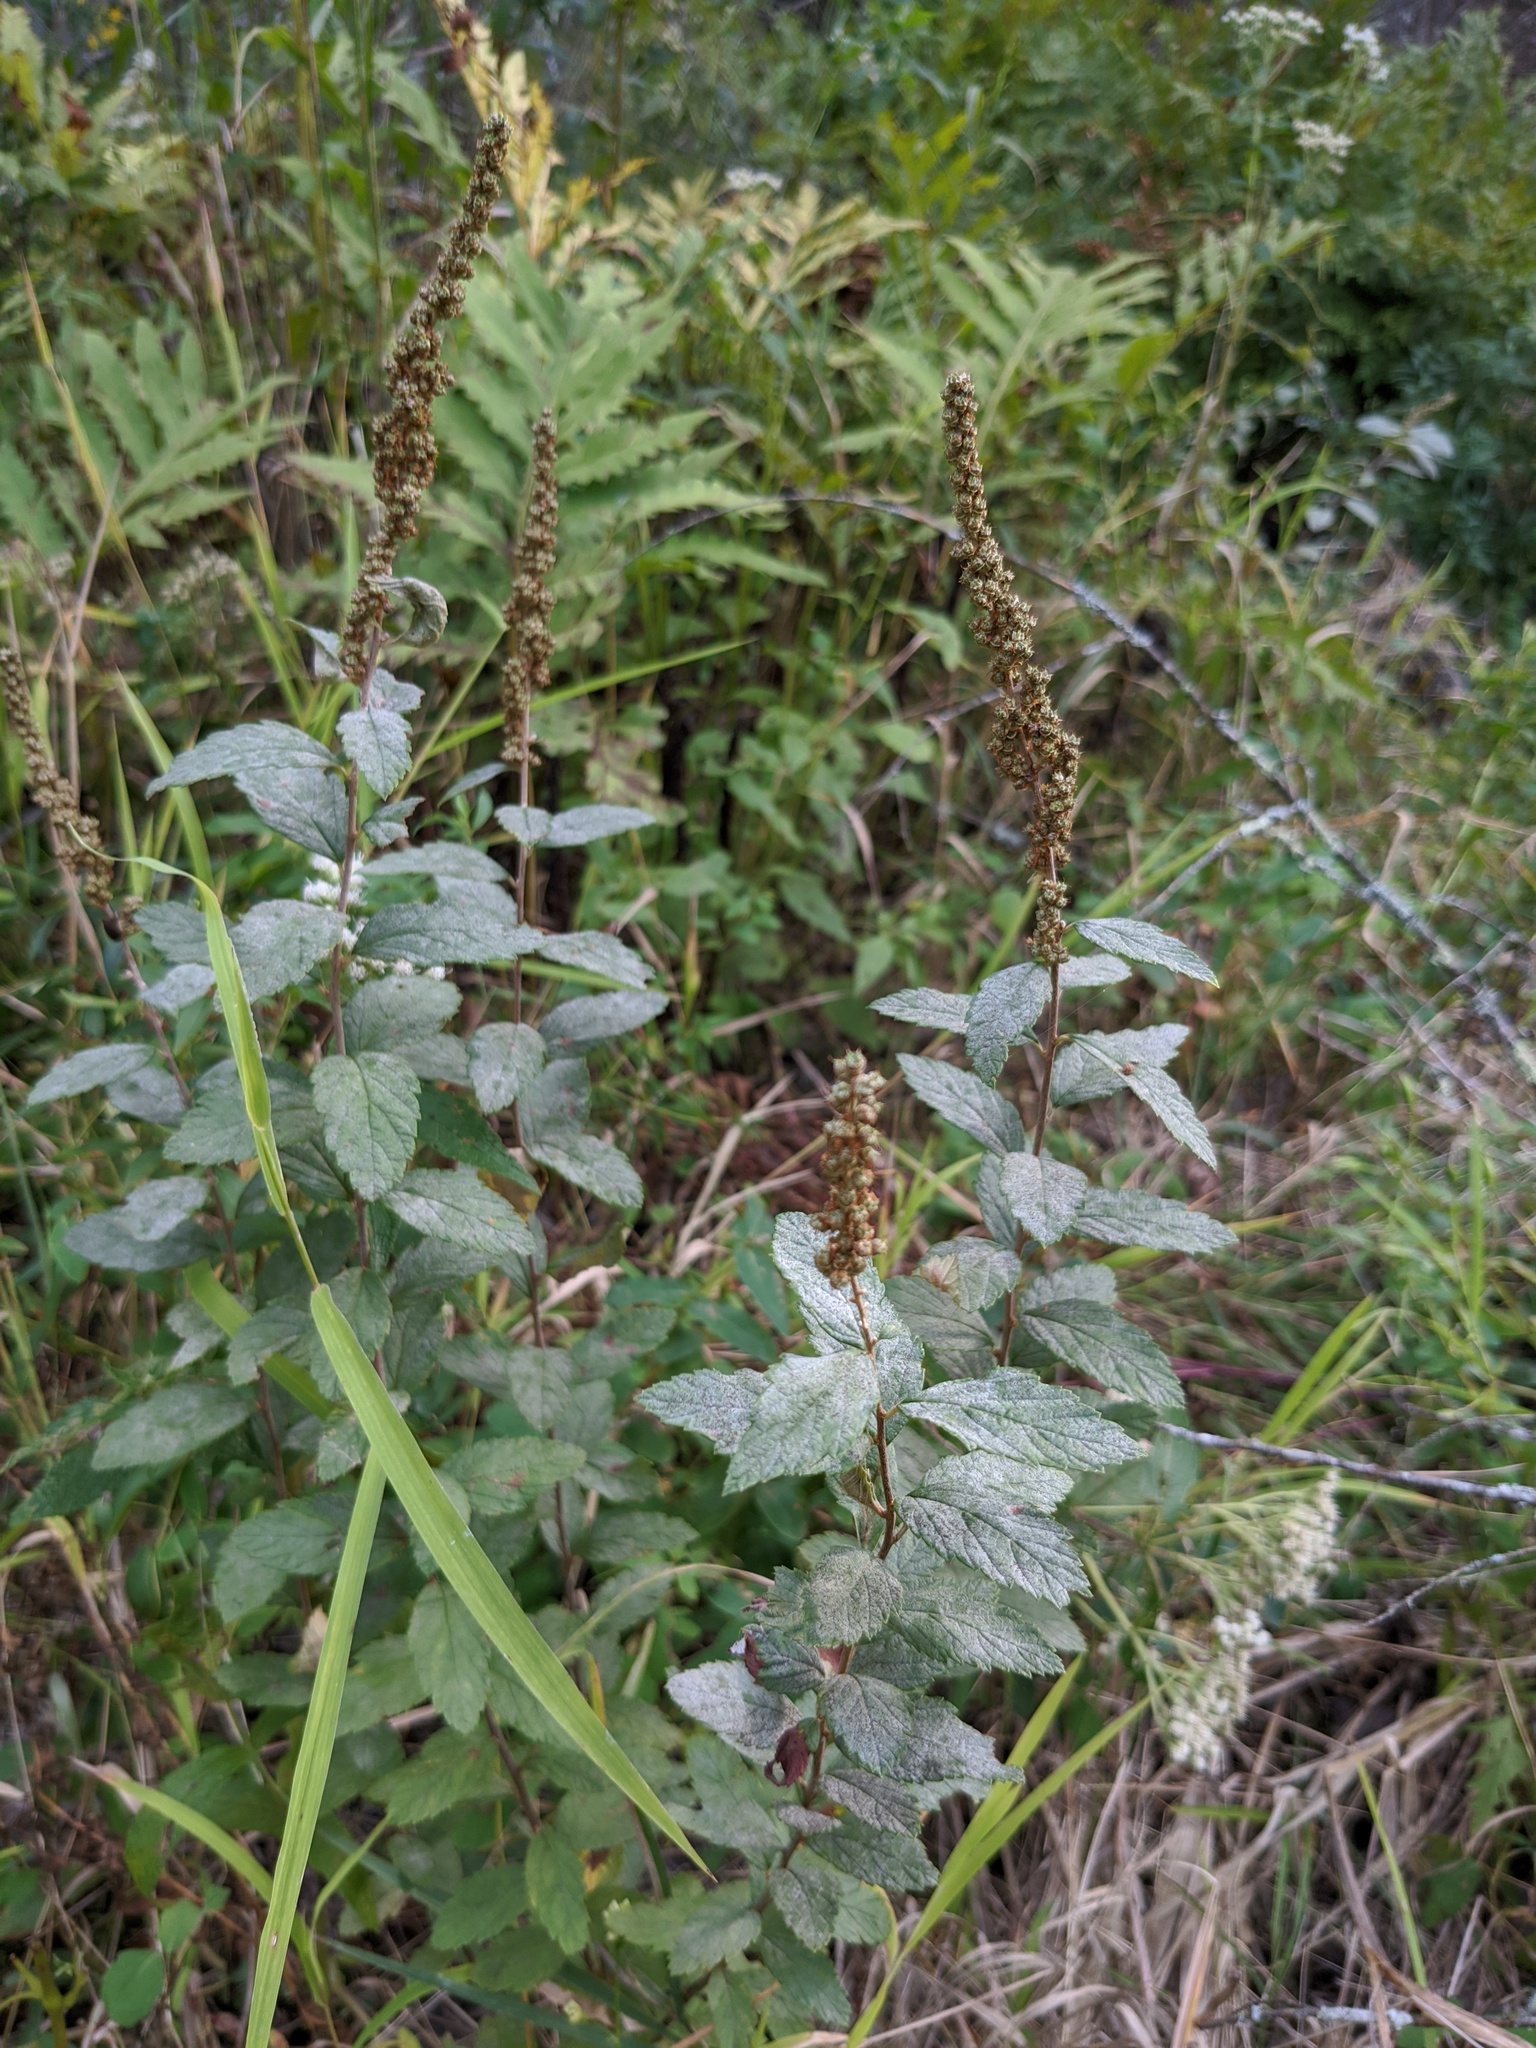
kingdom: Plantae
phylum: Tracheophyta
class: Magnoliopsida
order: Rosales
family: Rosaceae
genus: Spiraea
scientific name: Spiraea tomentosa
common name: Hardhack
